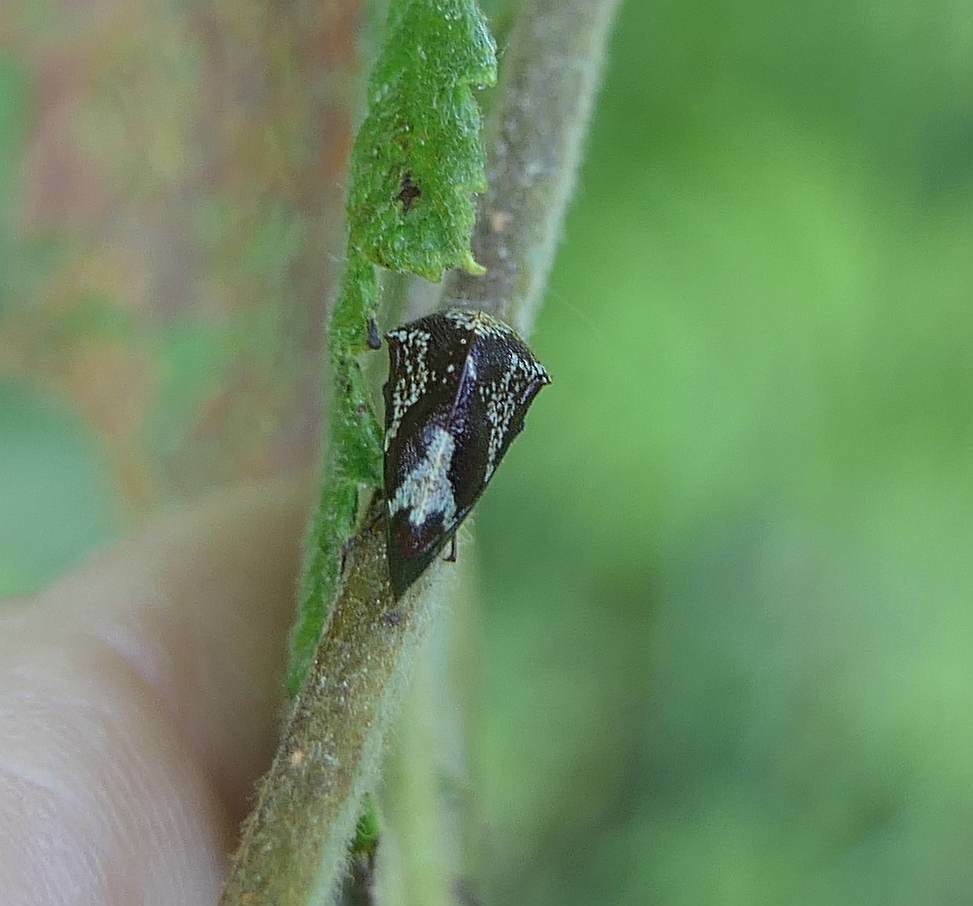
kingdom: Animalia
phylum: Arthropoda
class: Insecta
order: Hemiptera
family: Membracidae
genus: Carynota
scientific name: Carynota marmorata
